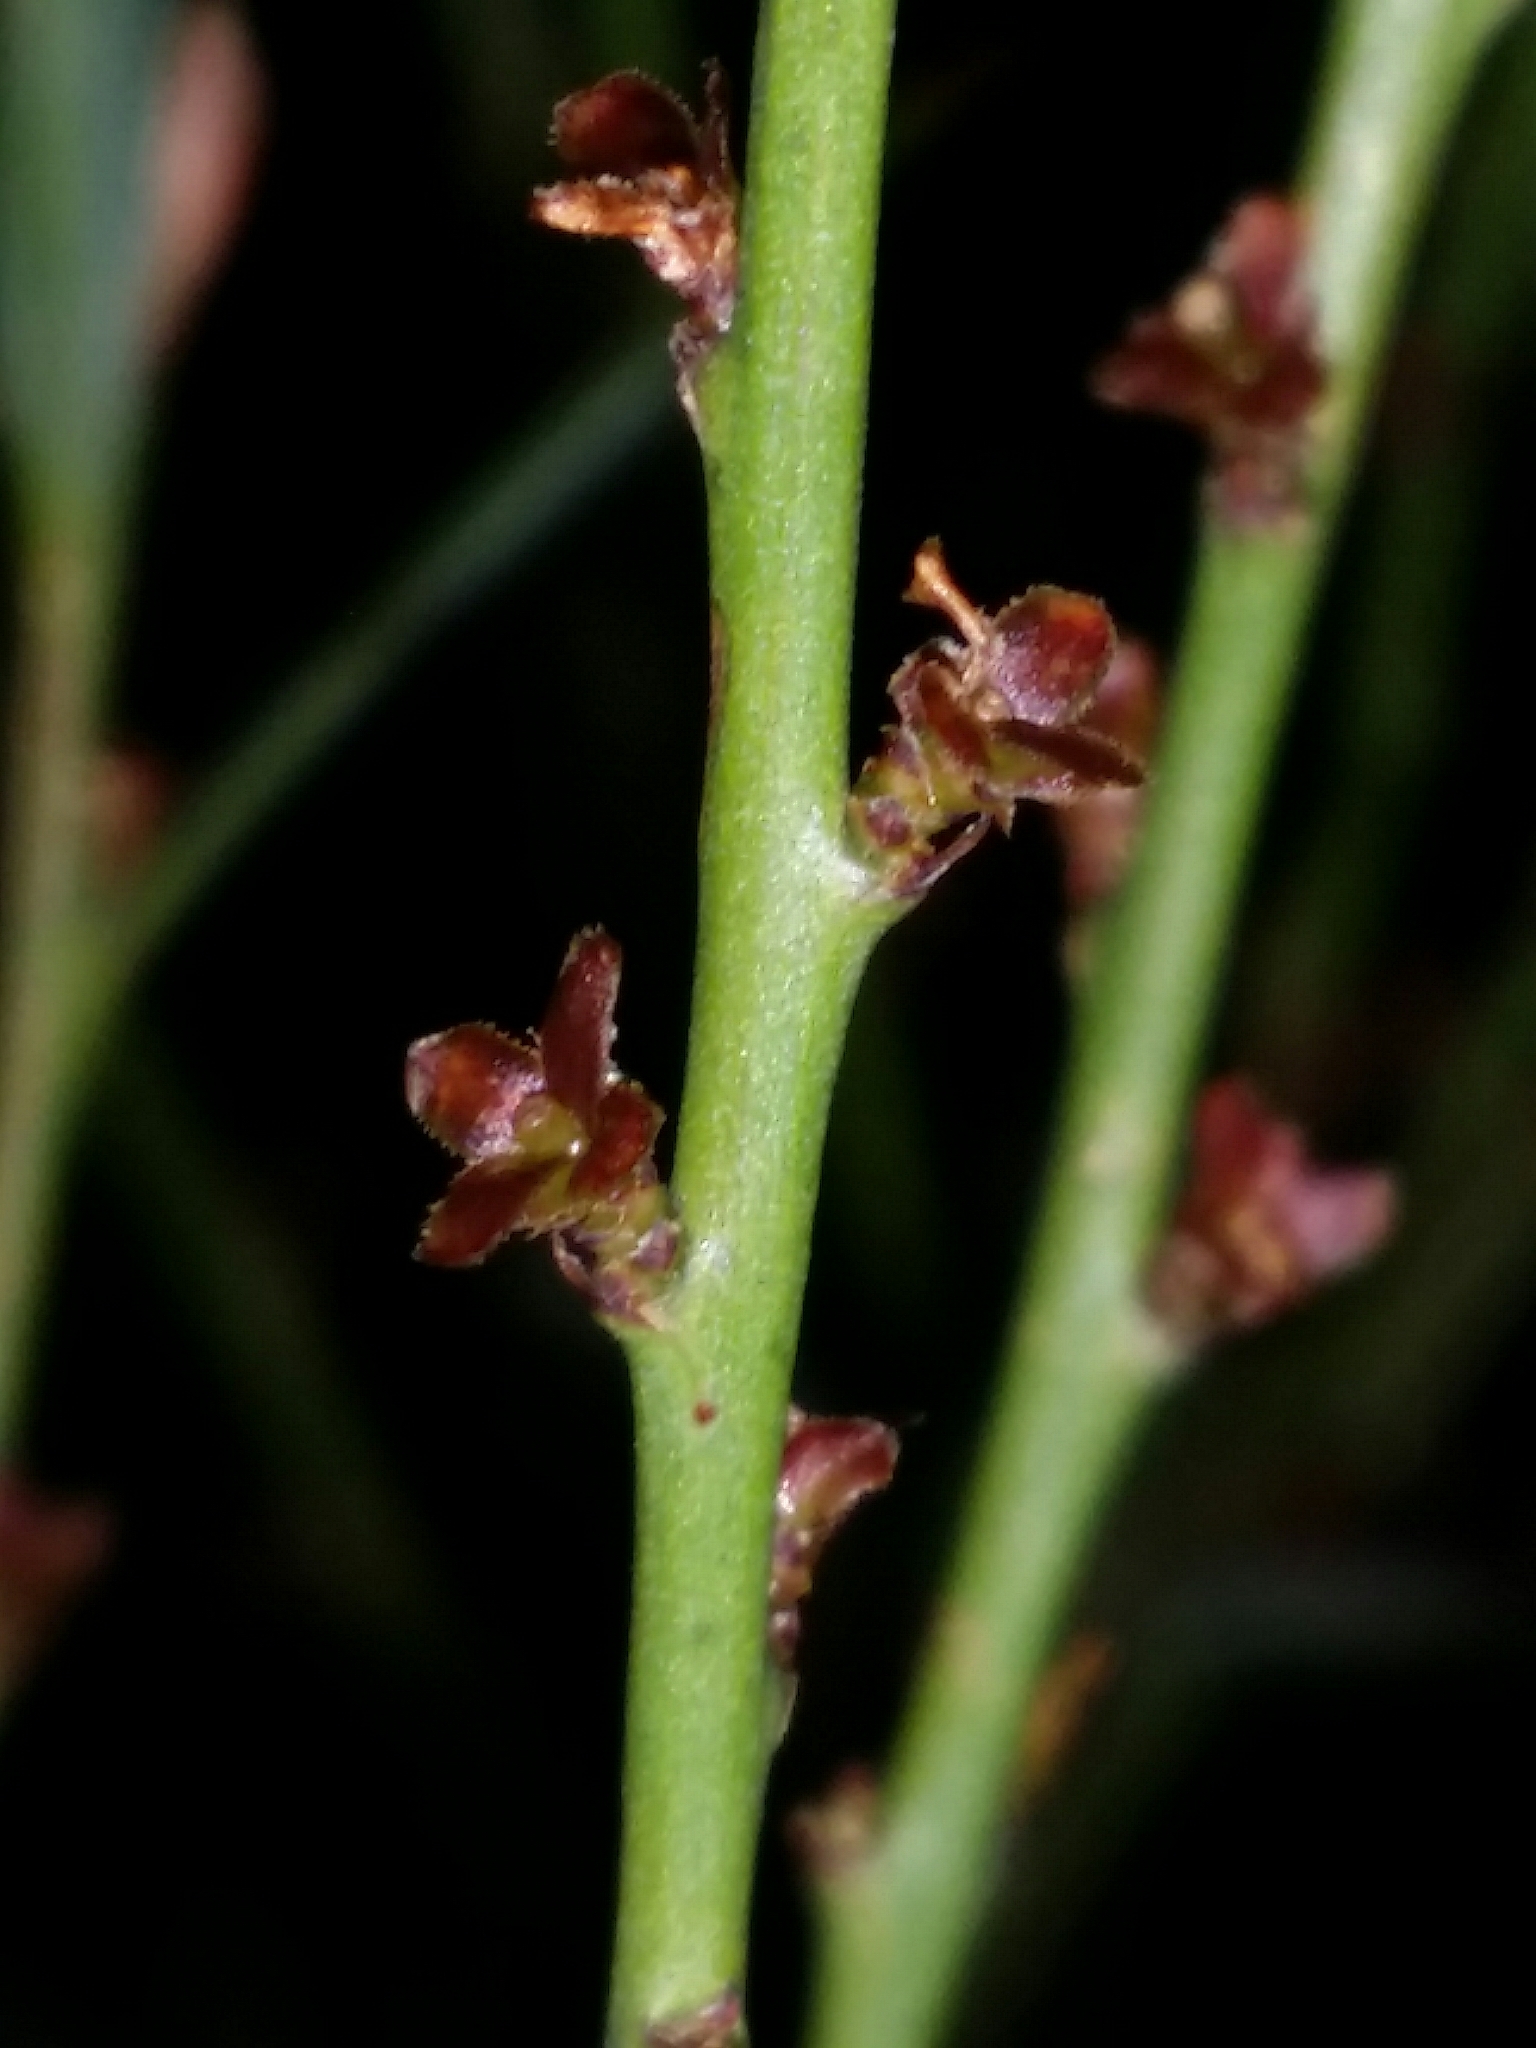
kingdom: Plantae
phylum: Tracheophyta
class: Magnoliopsida
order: Fabales
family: Fabaceae
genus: Daviesia
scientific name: Daviesia nudiflora
